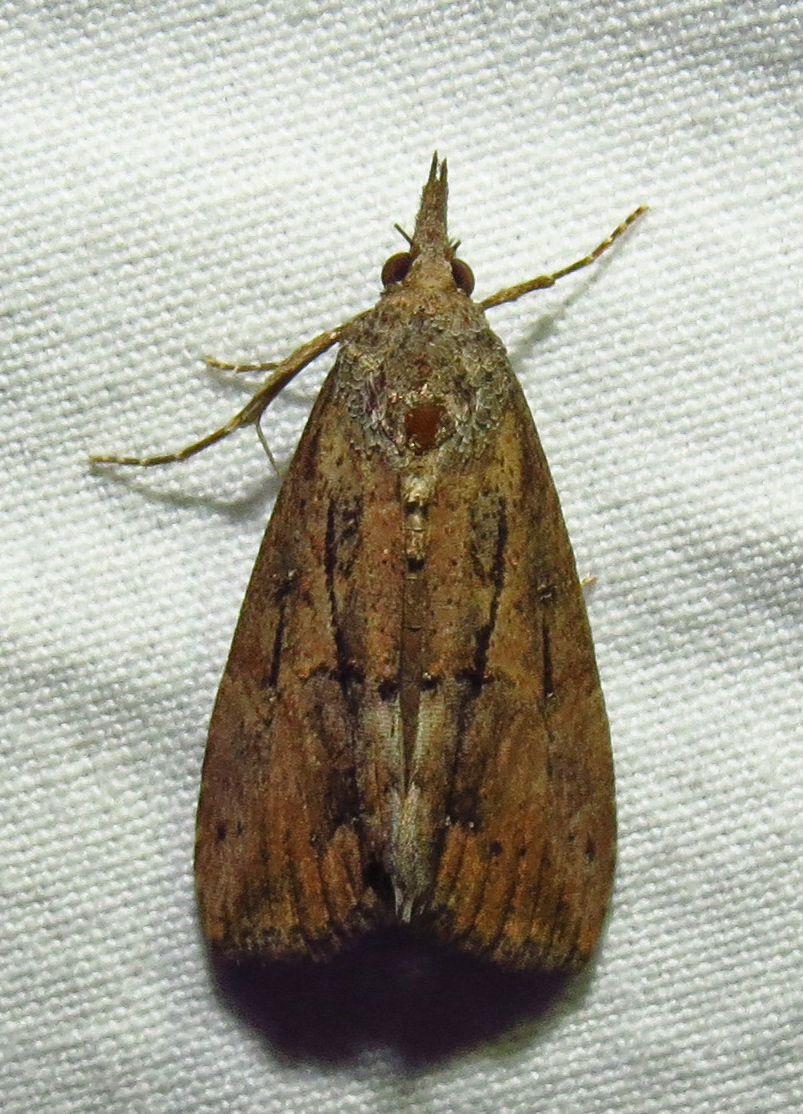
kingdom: Animalia
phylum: Arthropoda
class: Insecta
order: Lepidoptera
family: Erebidae
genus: Hypena
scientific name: Hypena scabra
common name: Green cloverworm
